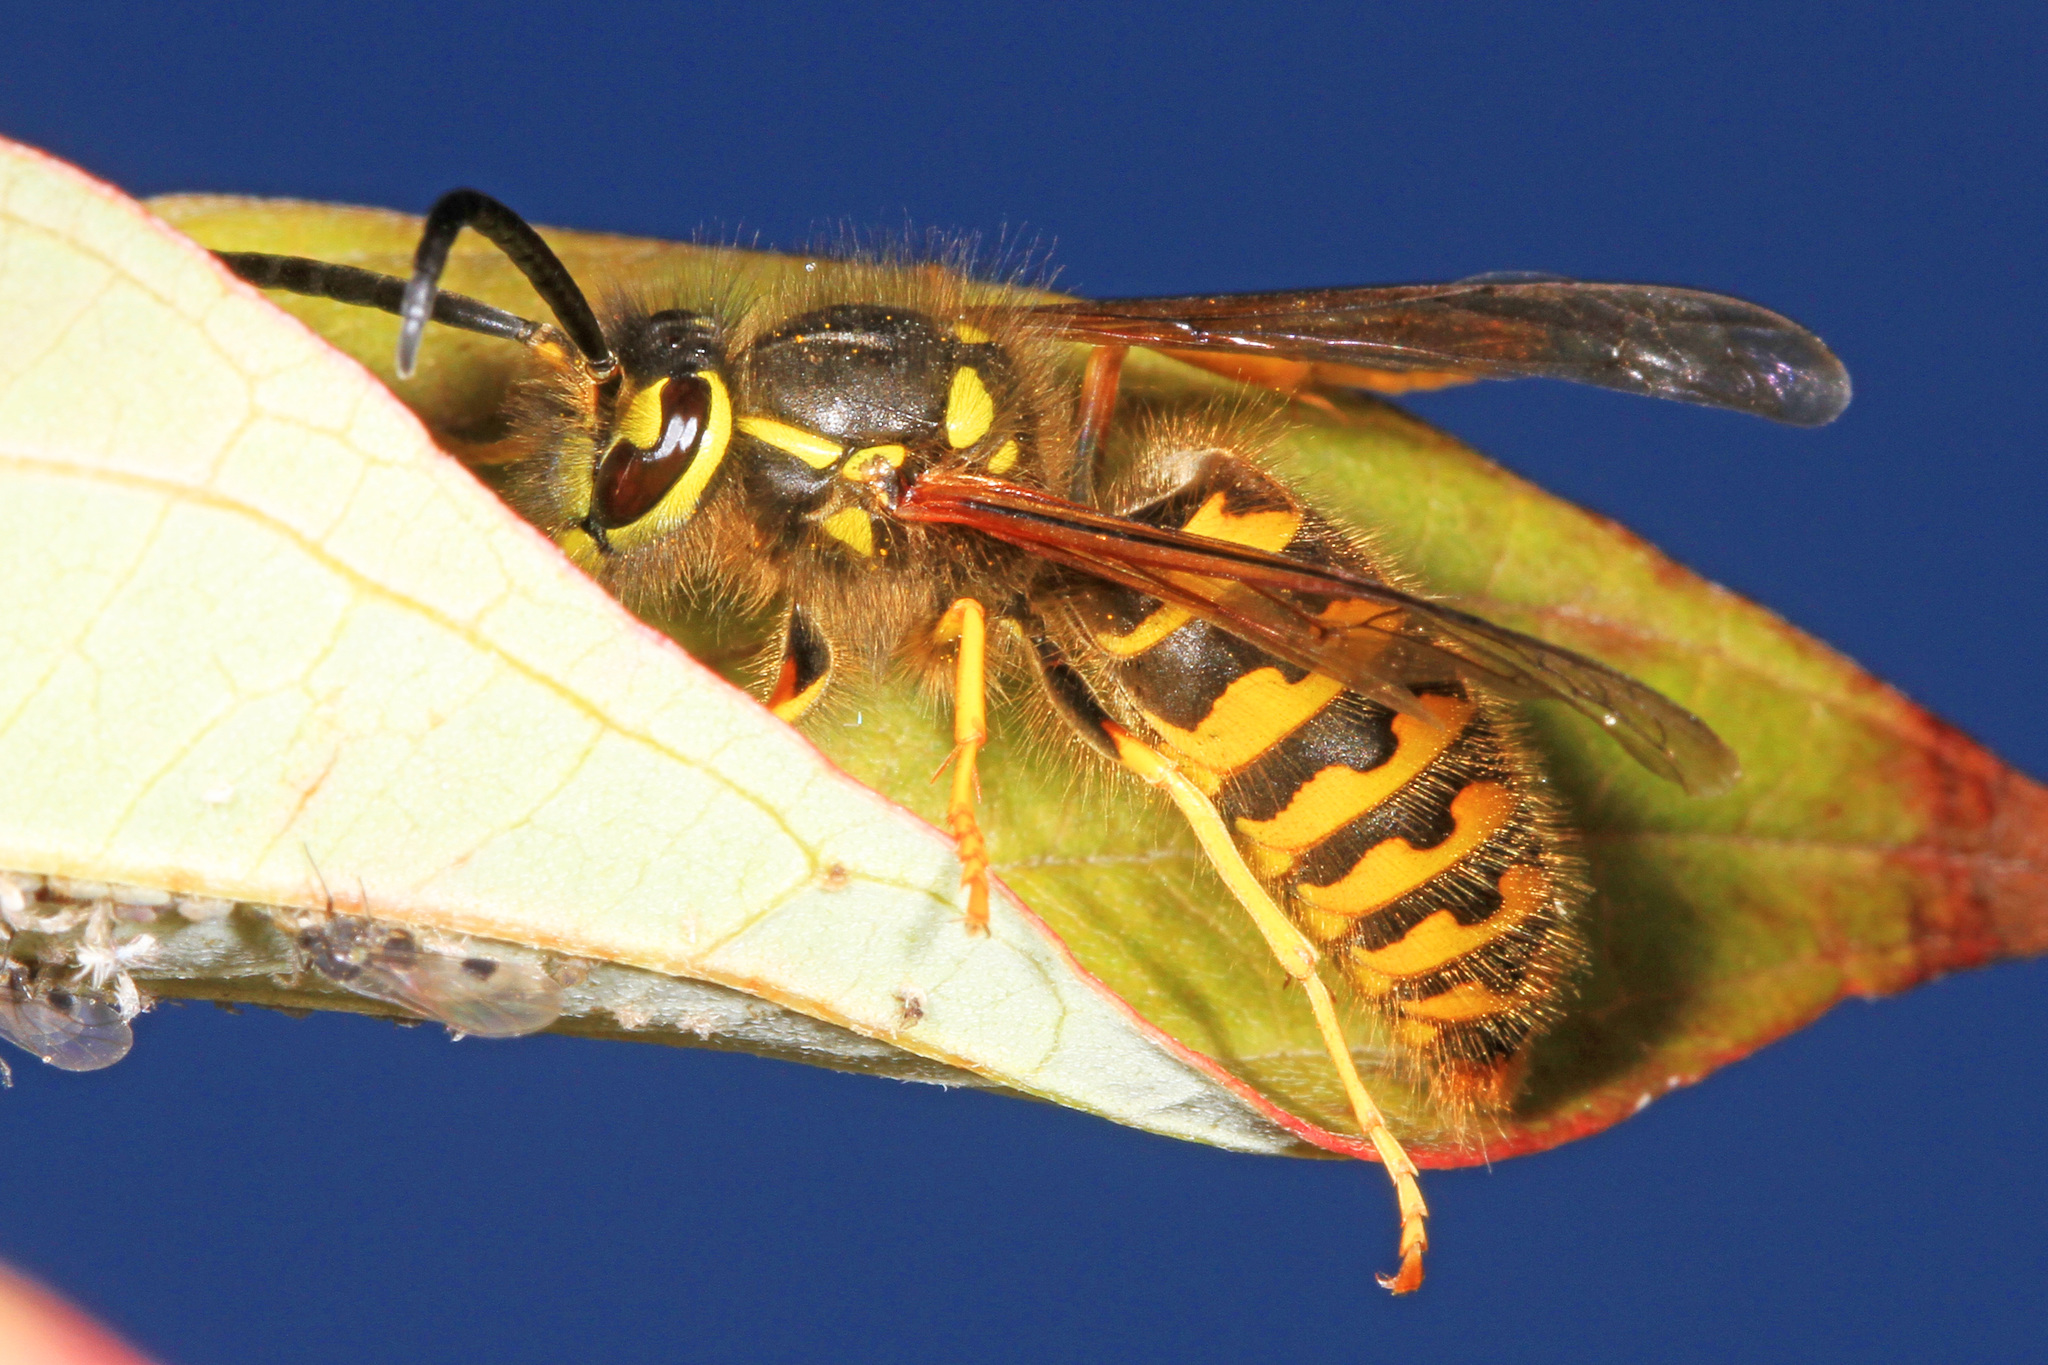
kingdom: Animalia
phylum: Arthropoda
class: Insecta
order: Hymenoptera
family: Vespidae
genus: Vespula
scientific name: Vespula pensylvanica
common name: Western yellowjacket
